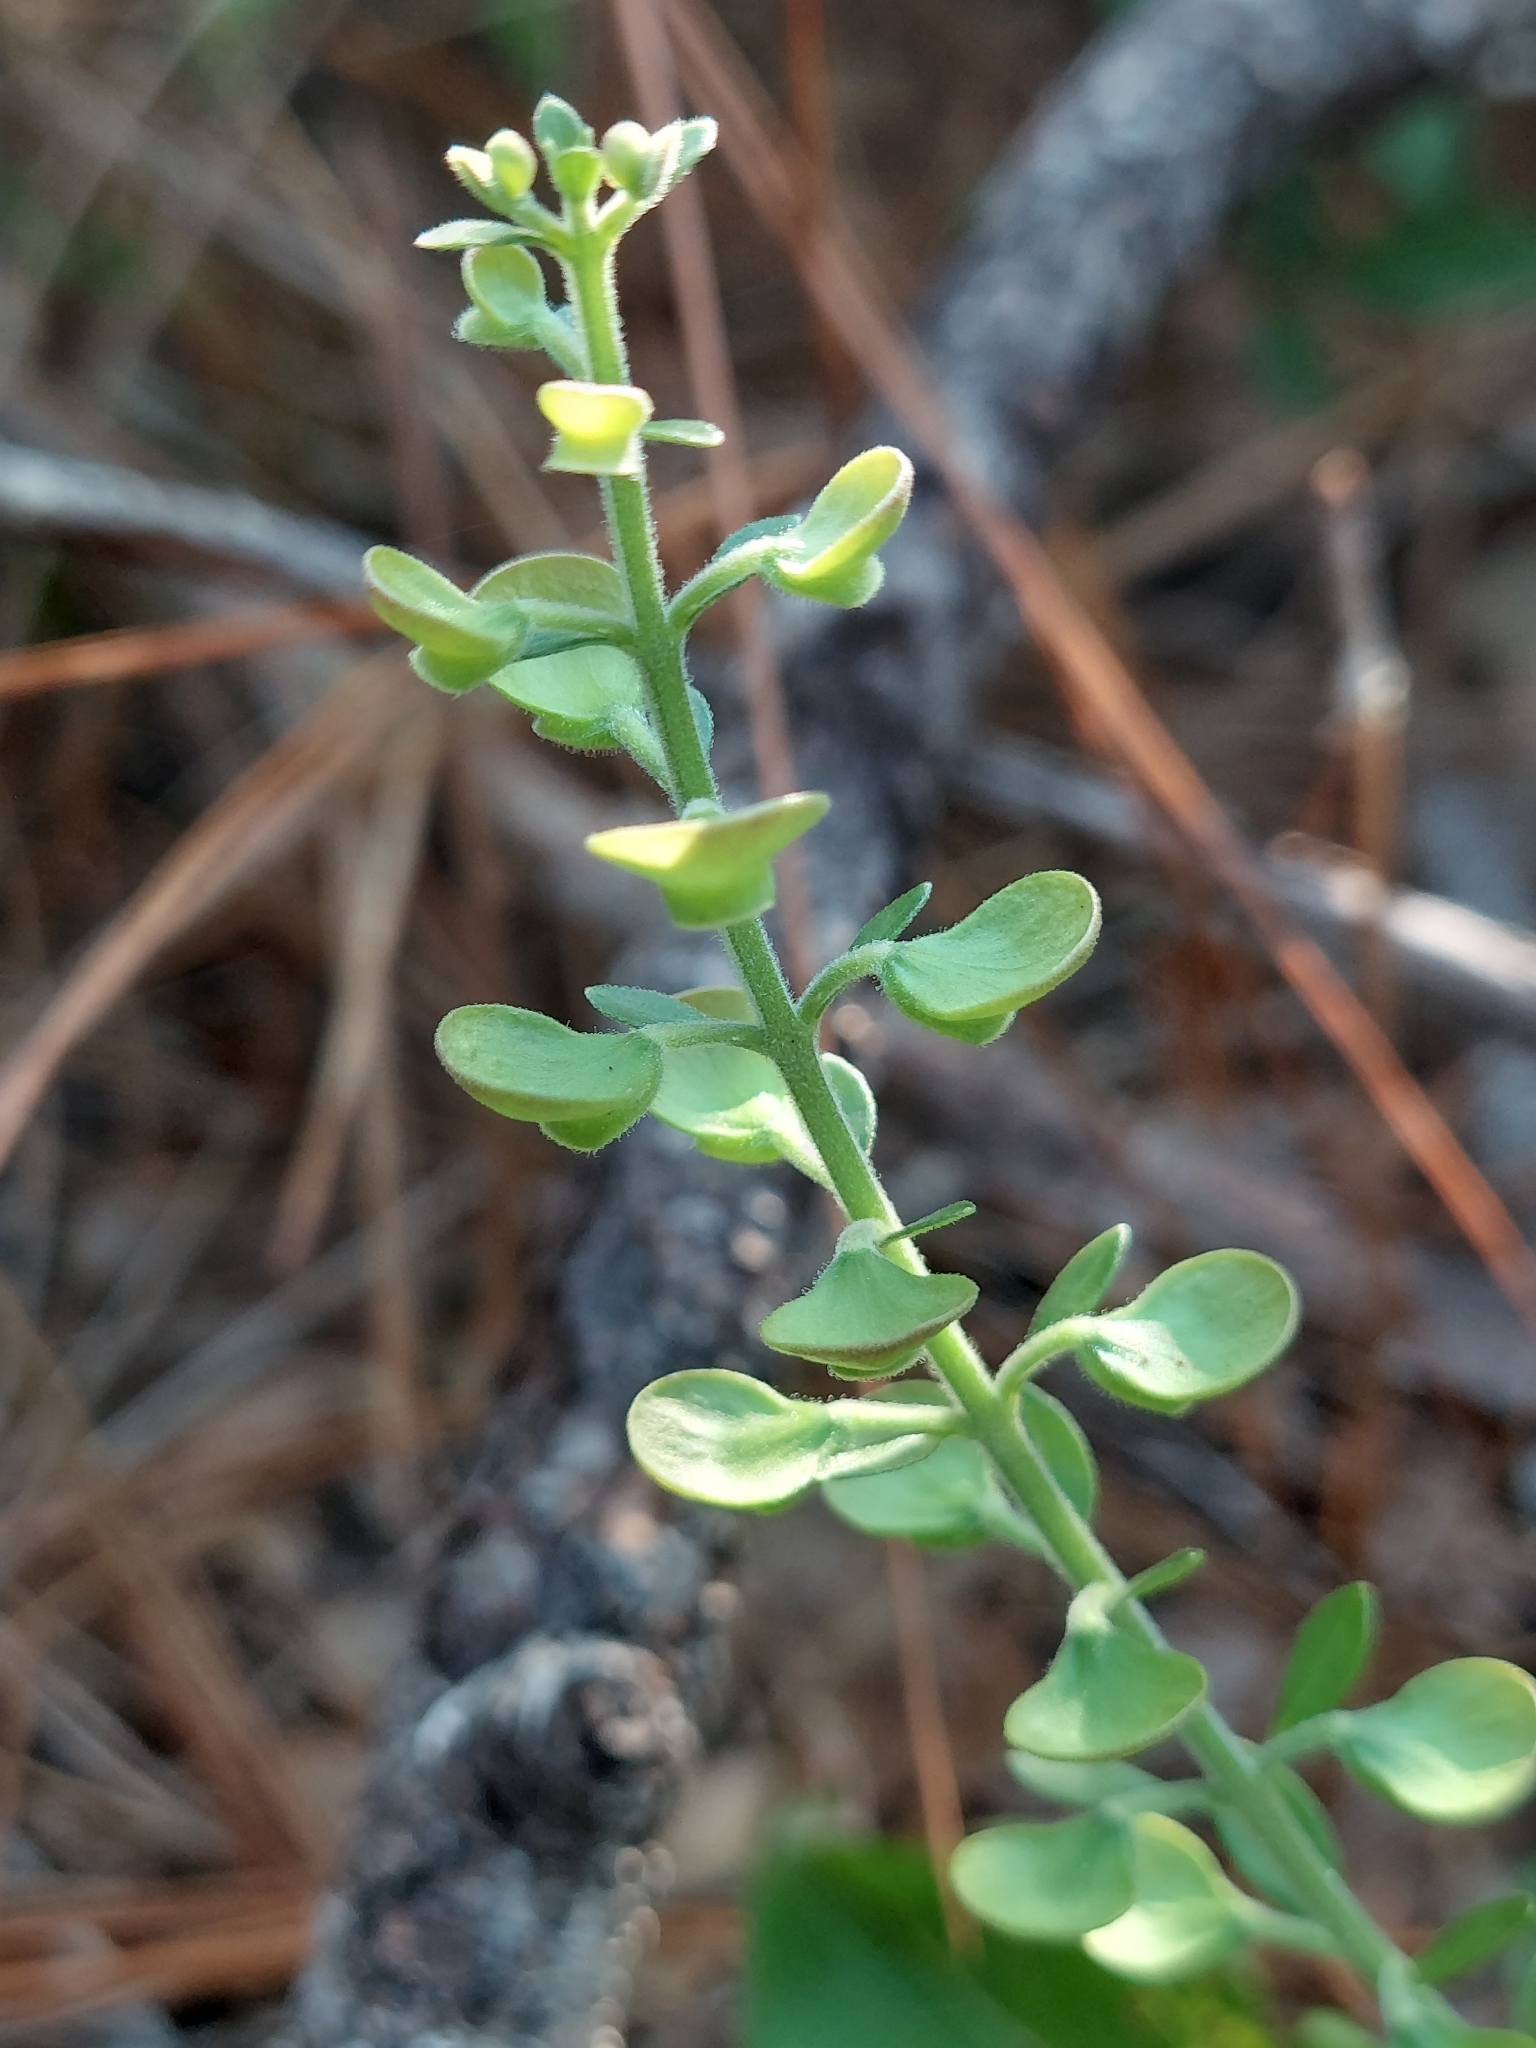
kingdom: Plantae
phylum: Tracheophyta
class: Magnoliopsida
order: Lamiales
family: Lamiaceae
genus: Scutellaria
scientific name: Scutellaria arenicola
